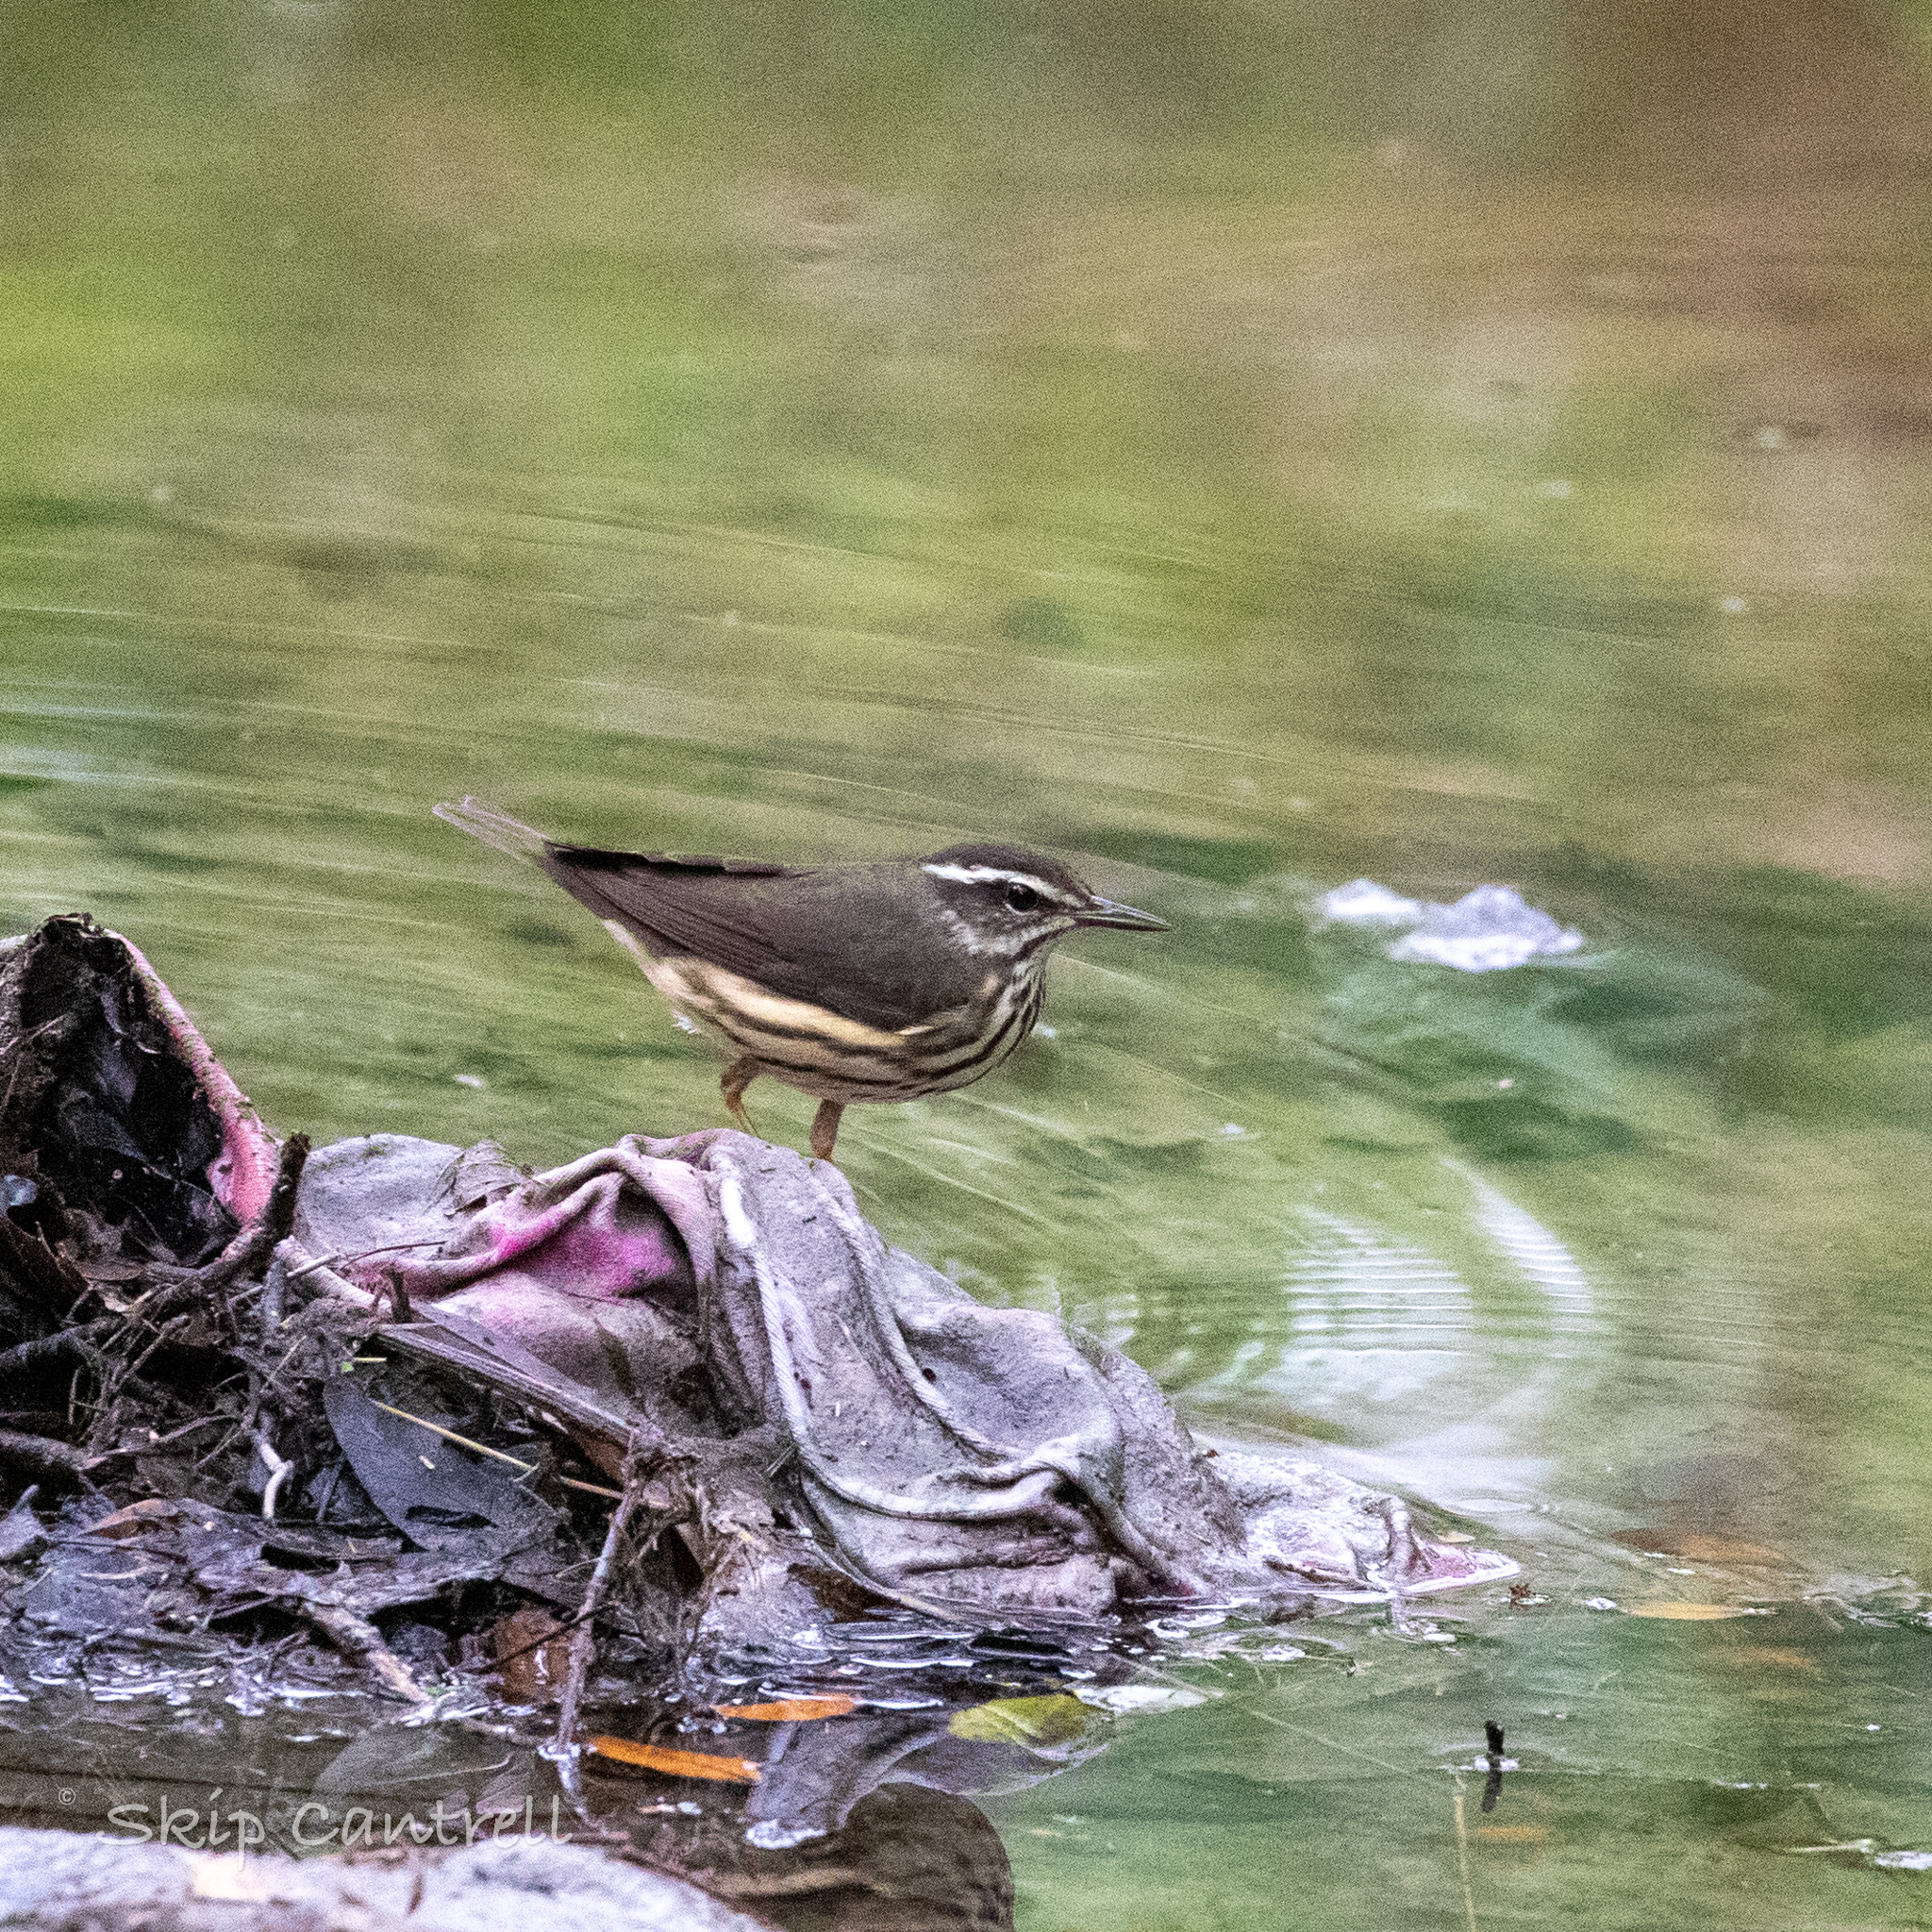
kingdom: Animalia
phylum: Chordata
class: Aves
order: Passeriformes
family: Parulidae
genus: Parkesia
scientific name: Parkesia motacilla
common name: Louisiana waterthrush
